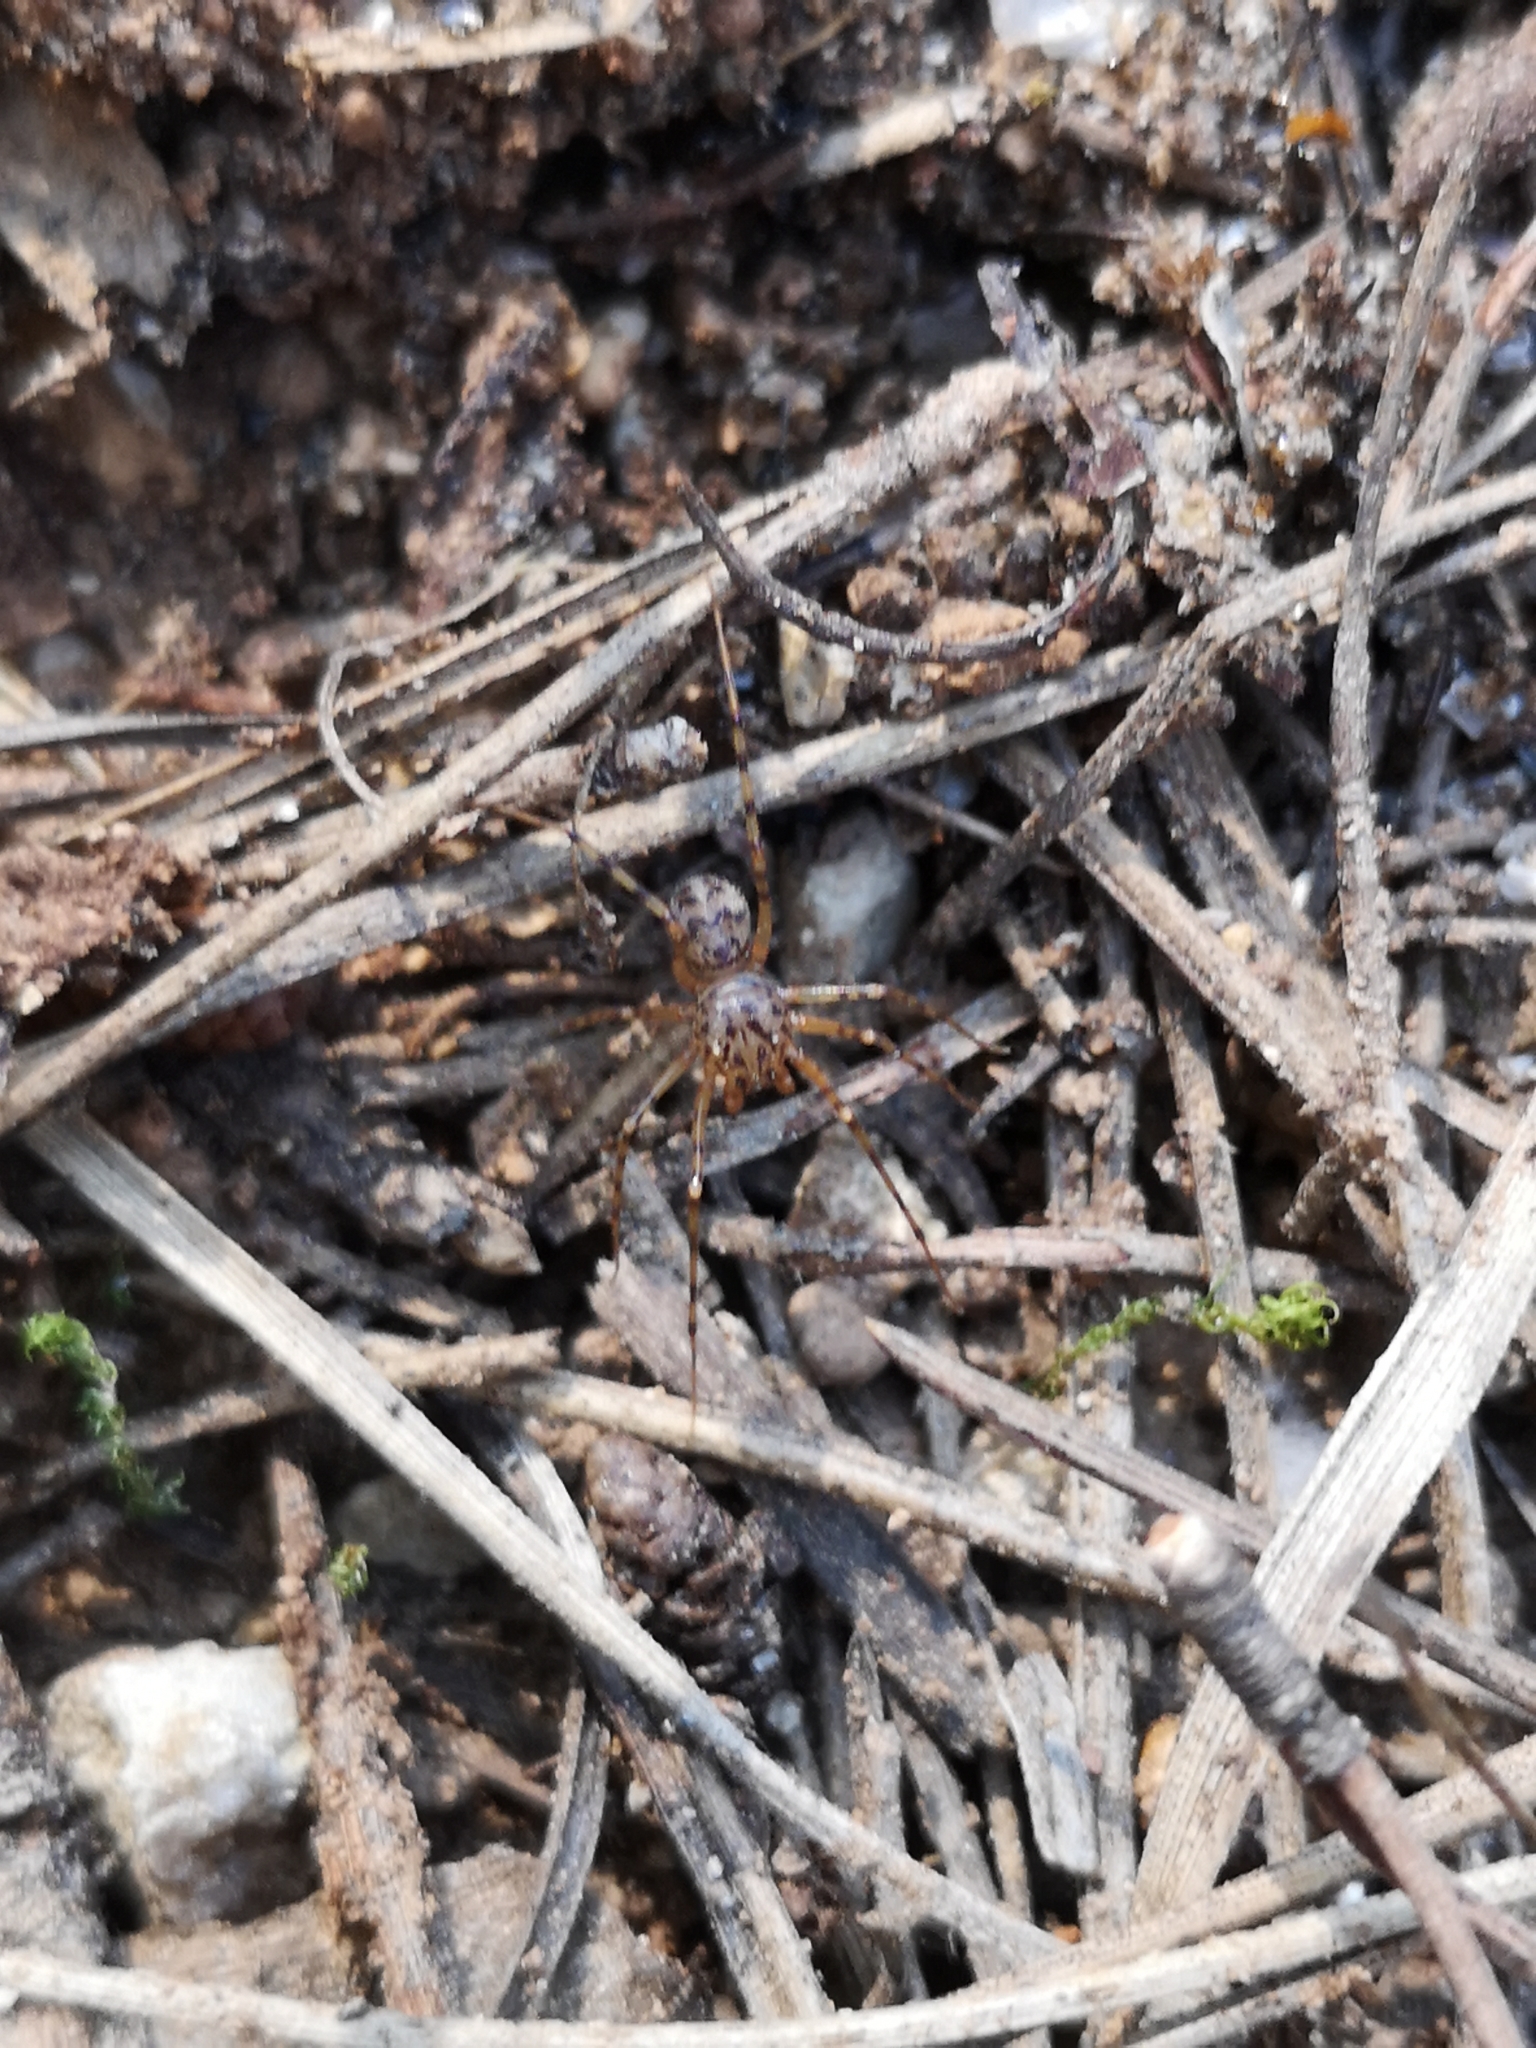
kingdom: Animalia
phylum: Arthropoda
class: Arachnida
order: Araneae
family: Scytodidae
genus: Scytodes
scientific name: Scytodes thoracica
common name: Spitting spider
